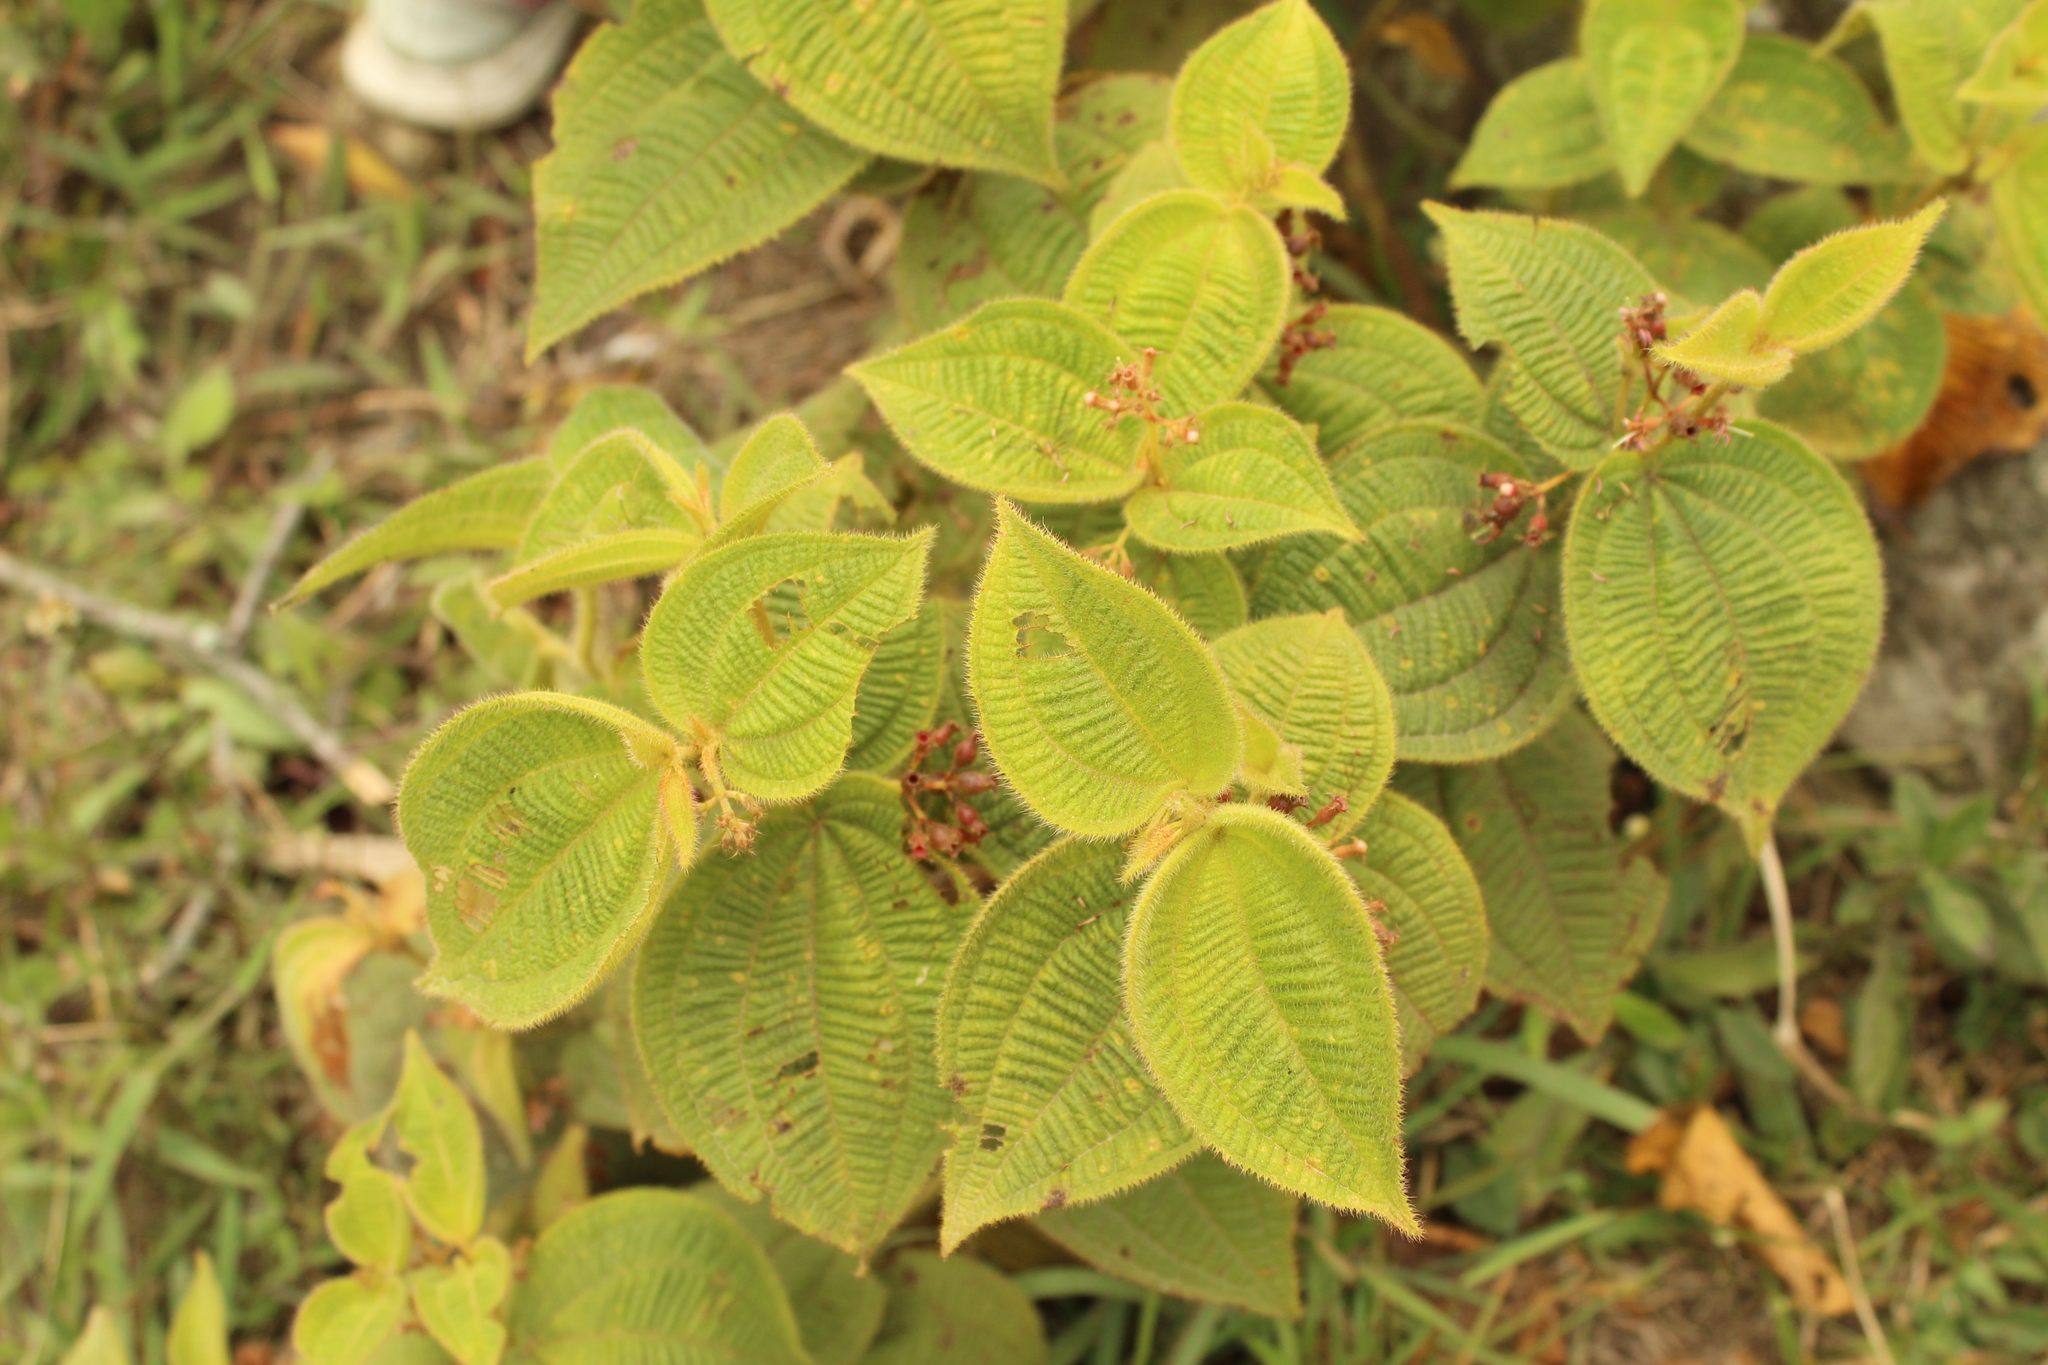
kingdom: Plantae
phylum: Tracheophyta
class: Magnoliopsida
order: Myrtales
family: Melastomataceae
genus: Miconia
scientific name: Miconia domociliata
